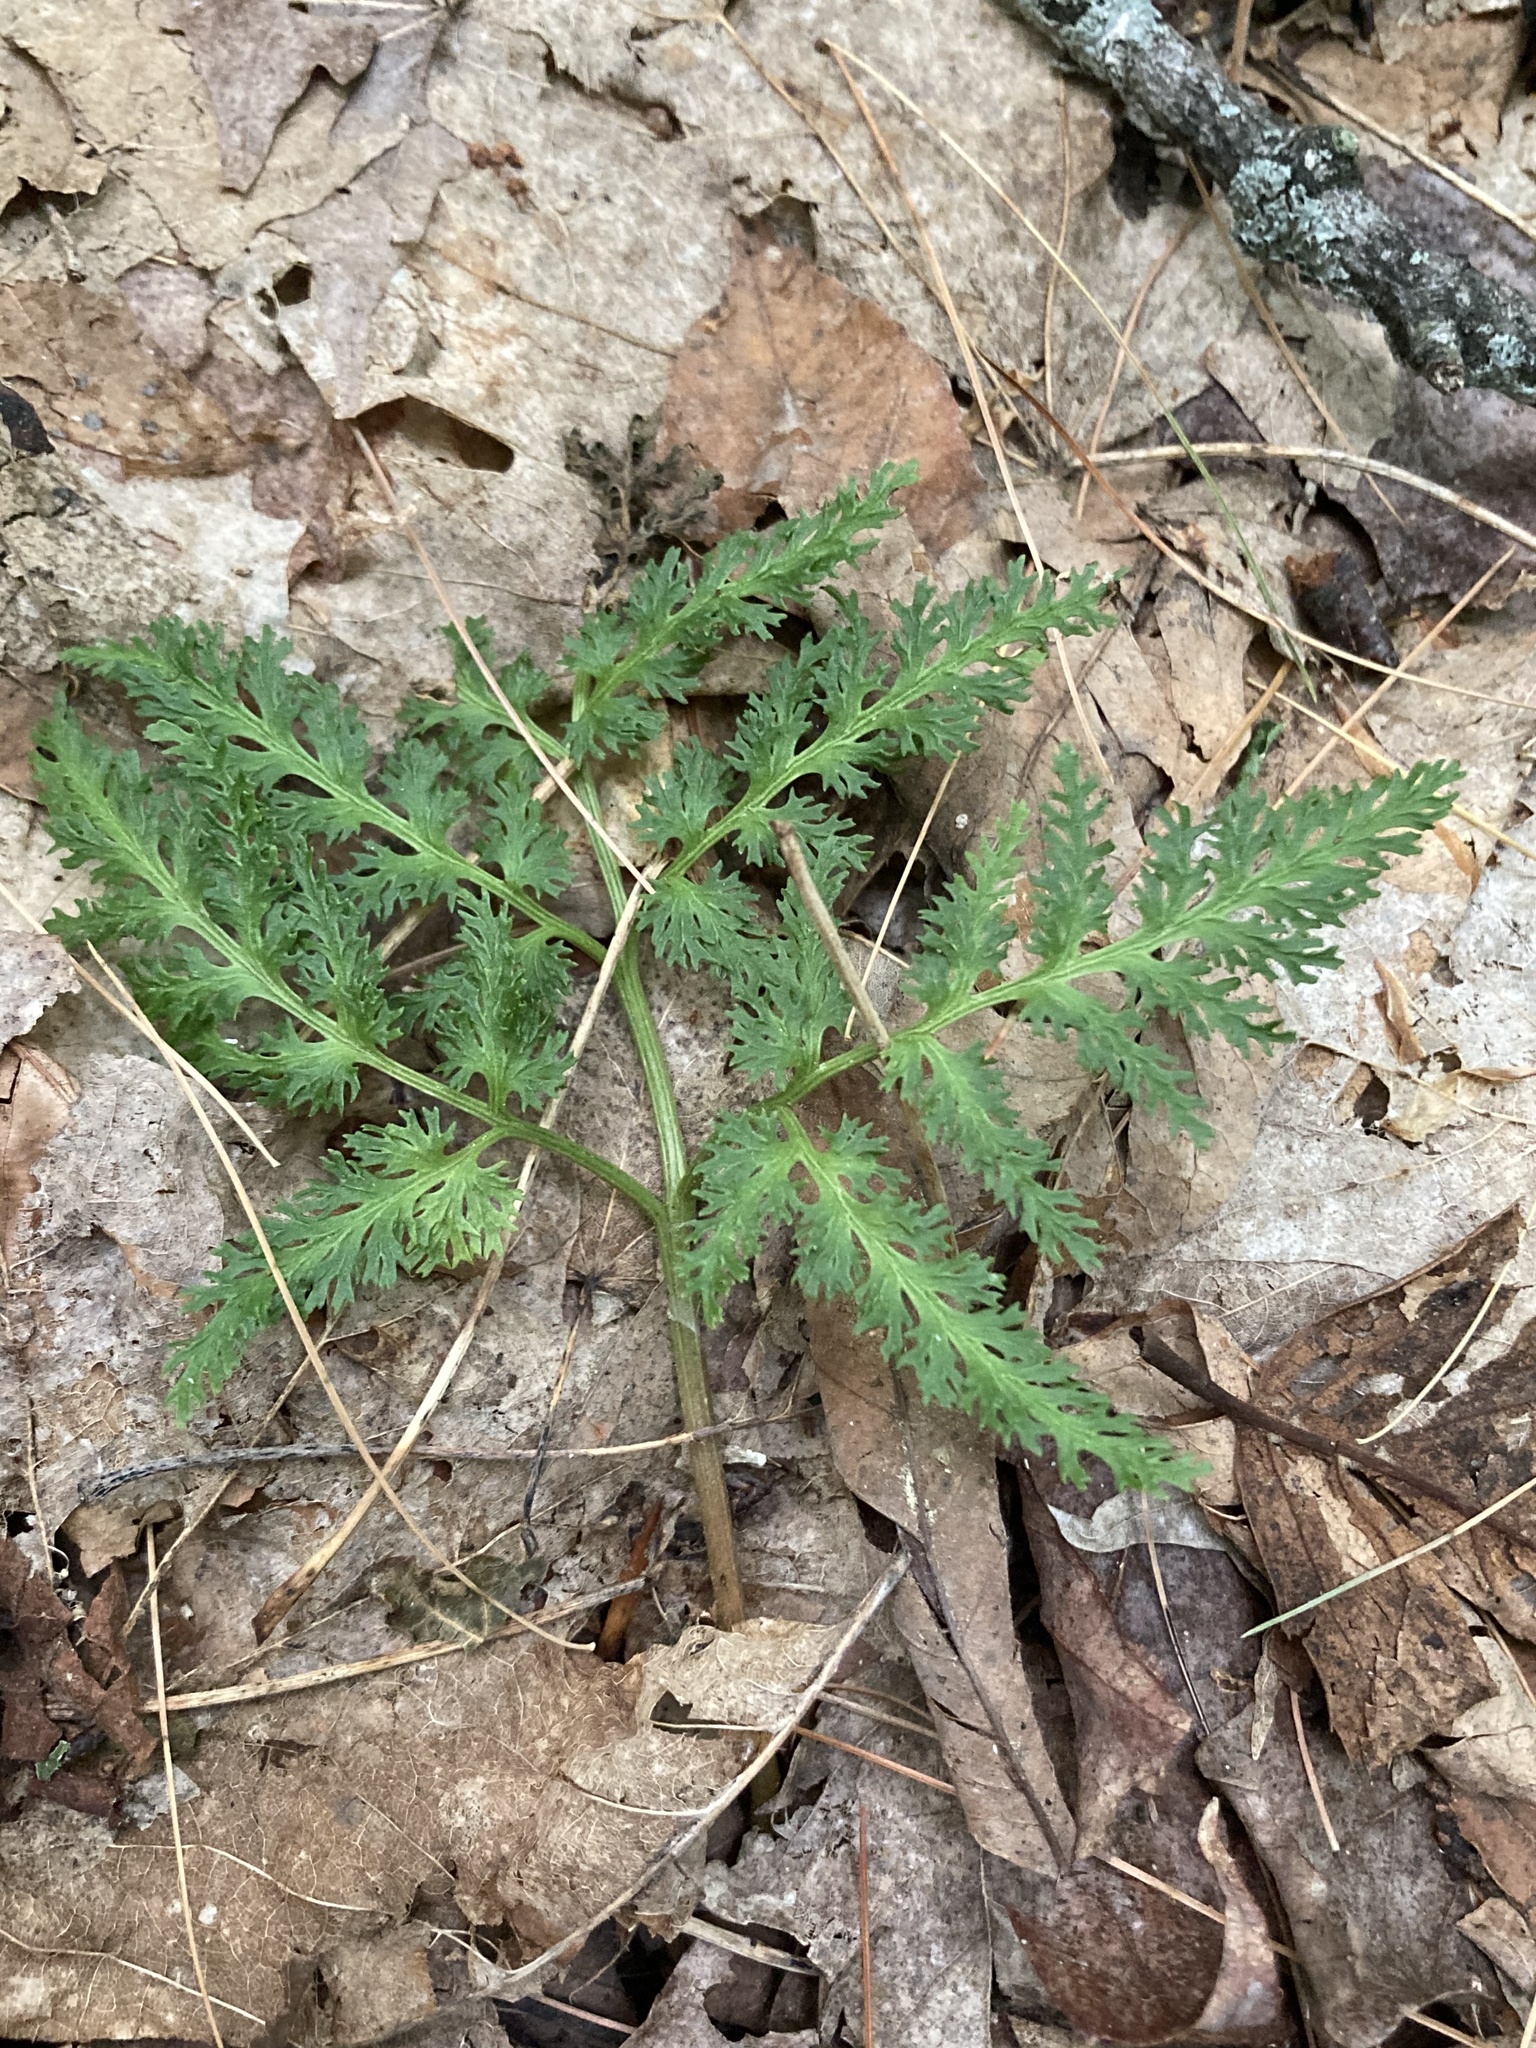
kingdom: Plantae
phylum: Tracheophyta
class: Polypodiopsida
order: Ophioglossales
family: Ophioglossaceae
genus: Sceptridium
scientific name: Sceptridium dissectum
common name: Cut-leaved grapefern
